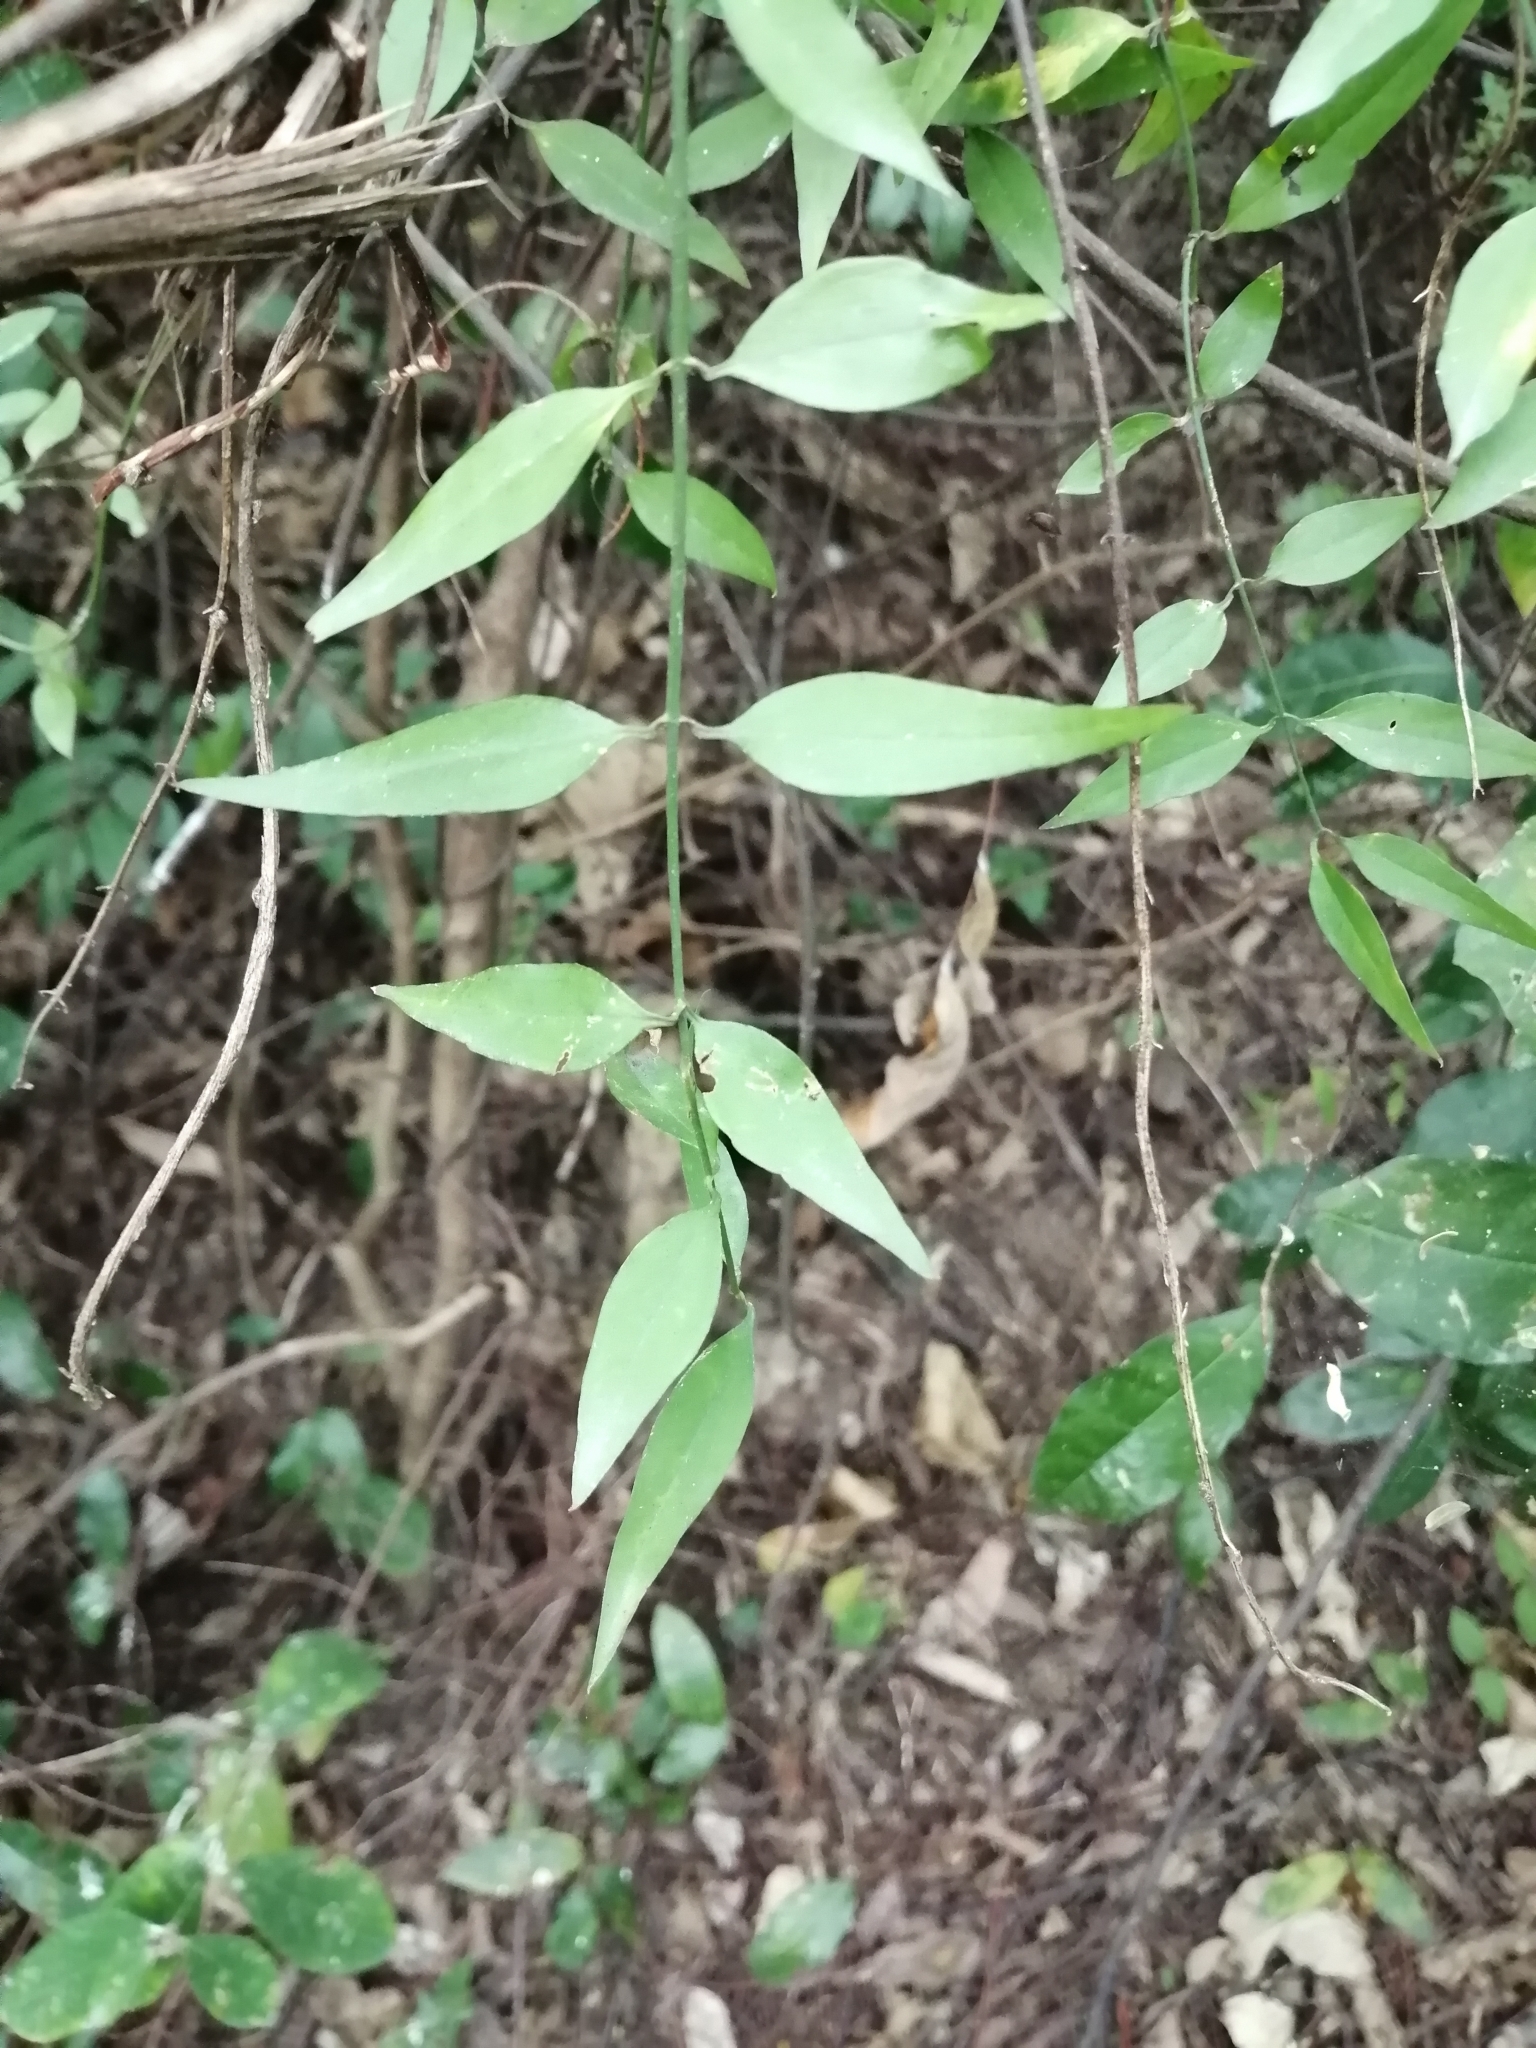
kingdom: Plantae
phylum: Tracheophyta
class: Magnoliopsida
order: Lamiales
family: Oleaceae
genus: Jasminum
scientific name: Jasminum nervosum
